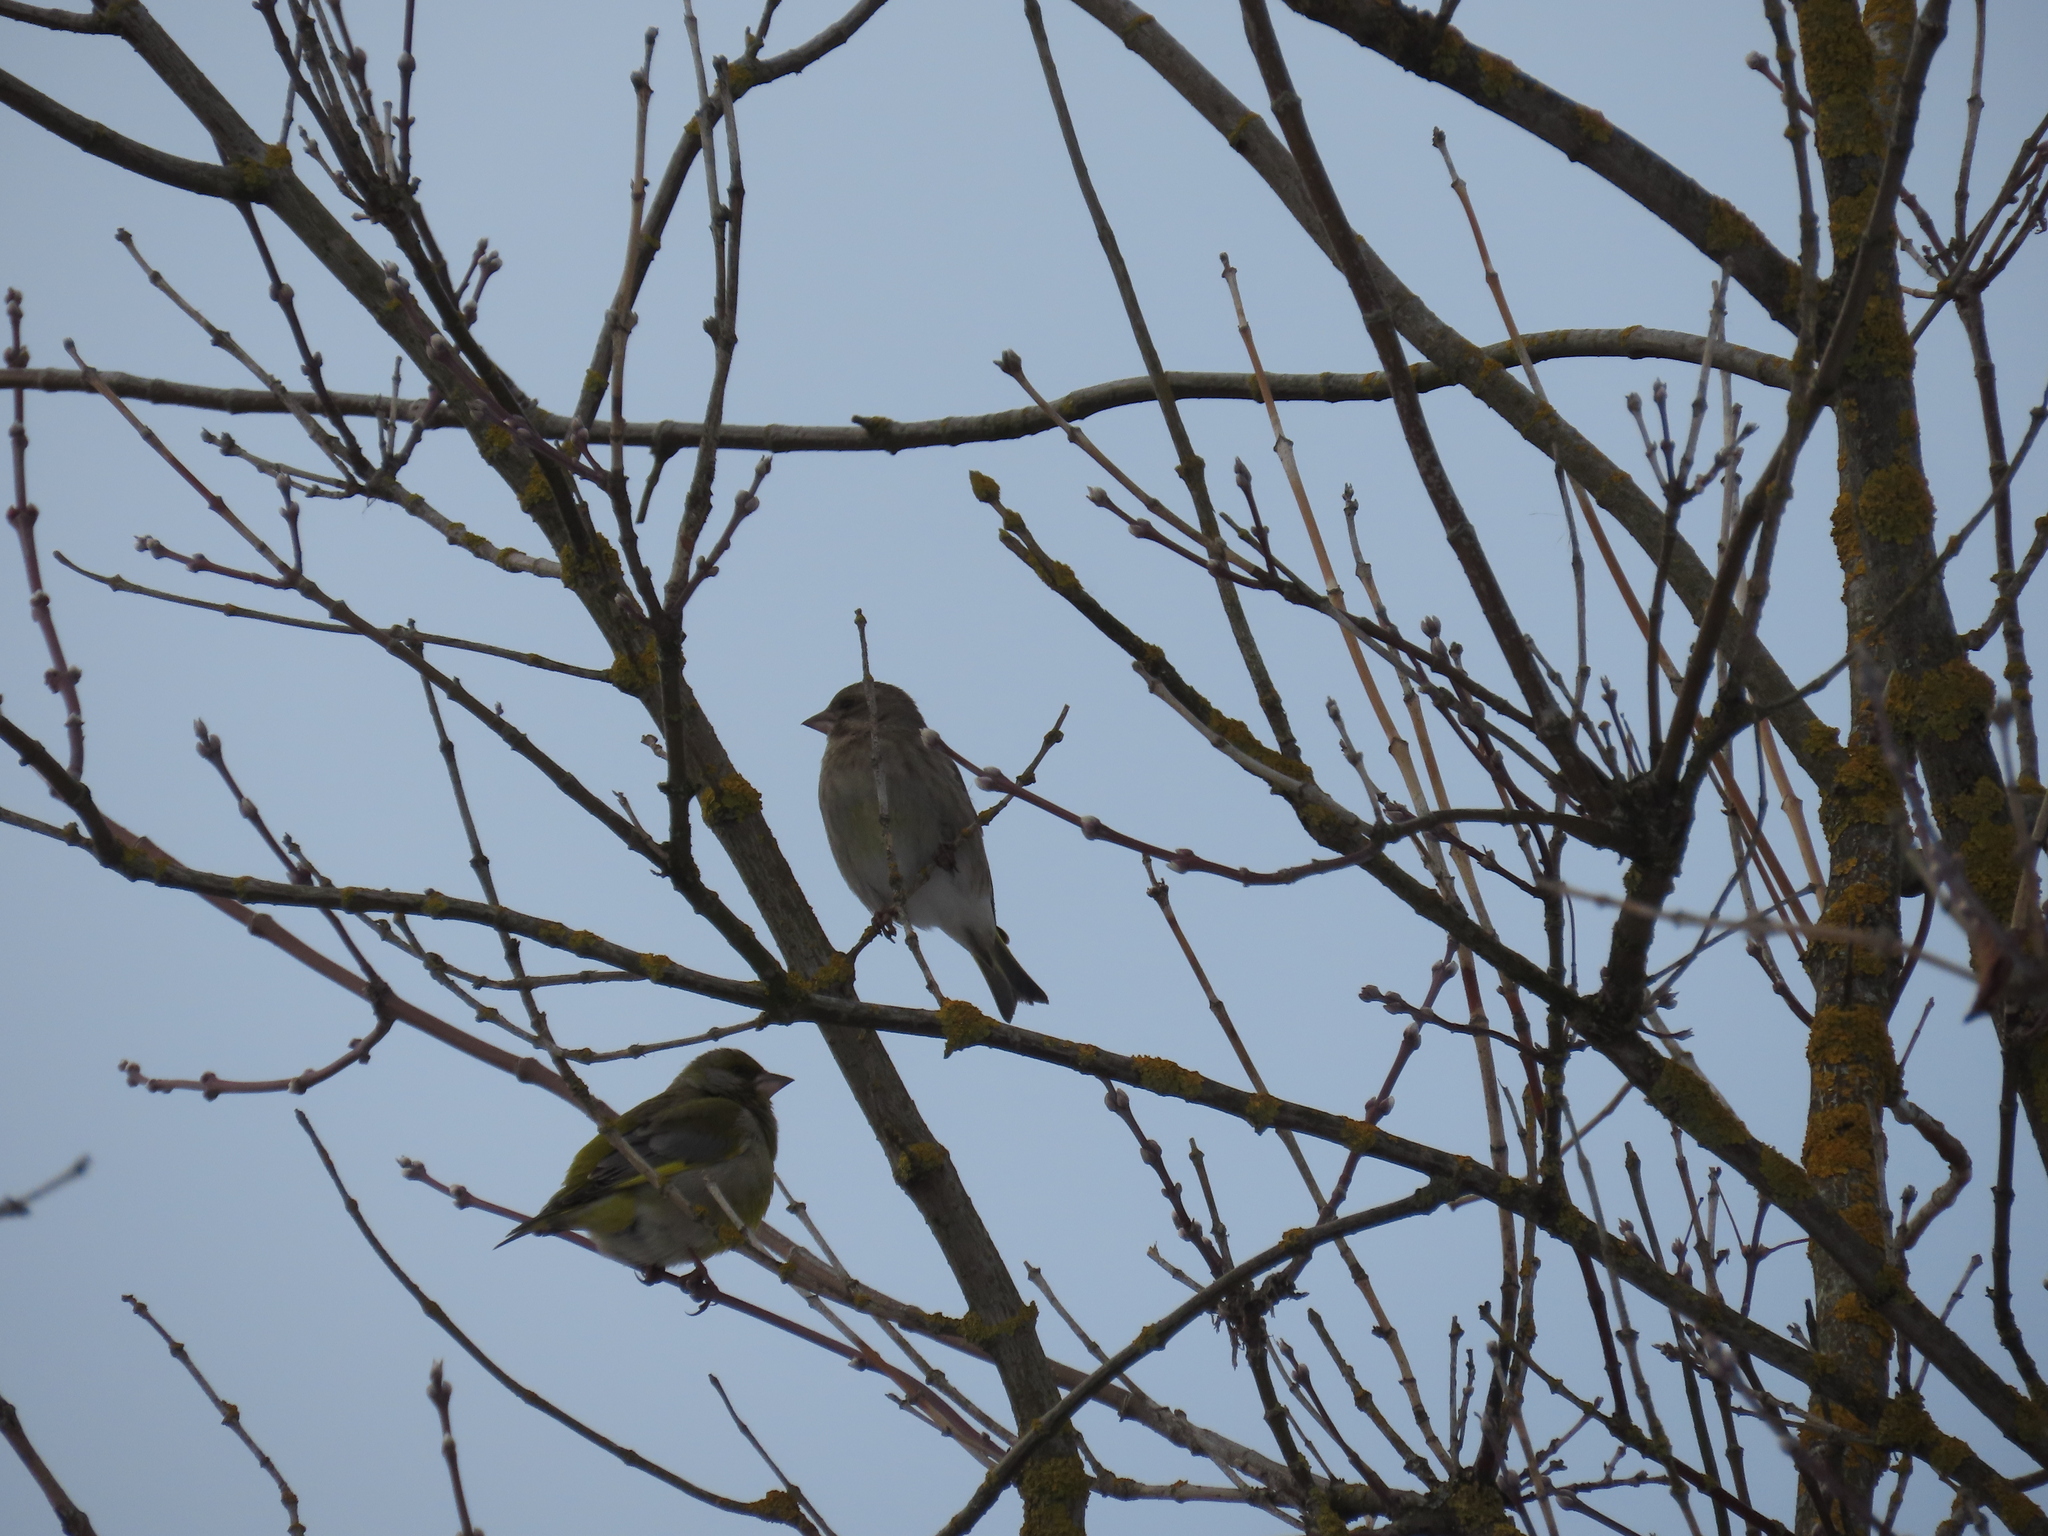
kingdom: Plantae
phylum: Tracheophyta
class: Liliopsida
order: Poales
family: Poaceae
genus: Chloris
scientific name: Chloris chloris
